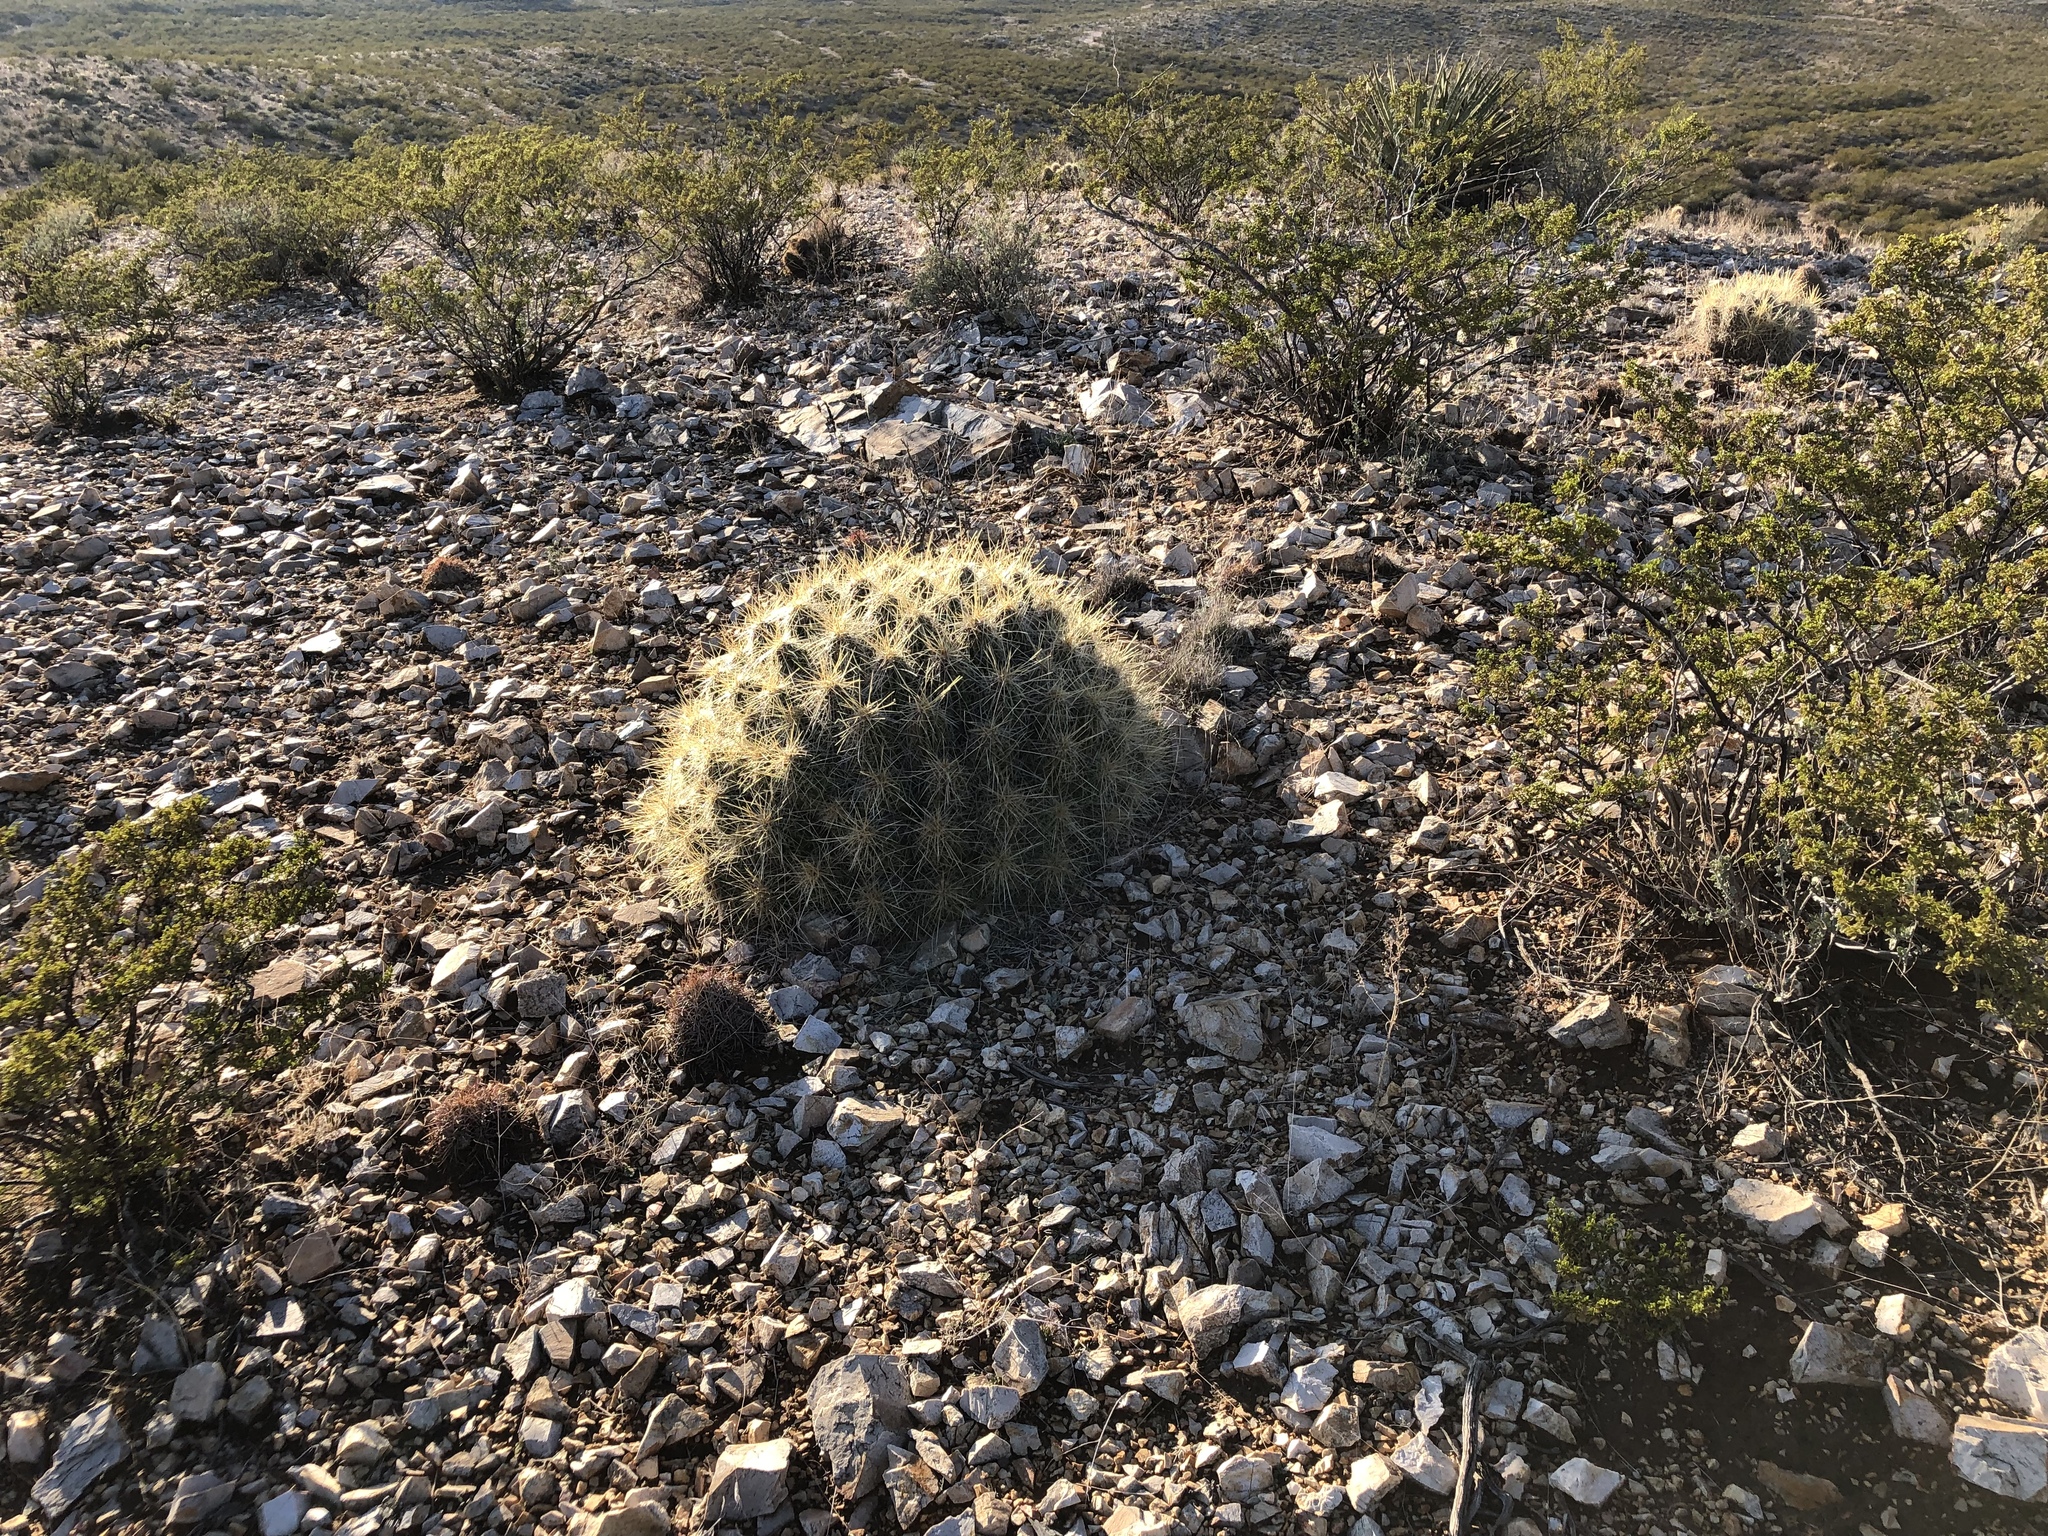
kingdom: Plantae
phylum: Tracheophyta
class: Magnoliopsida
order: Caryophyllales
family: Cactaceae
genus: Echinocereus
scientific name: Echinocereus stramineus
